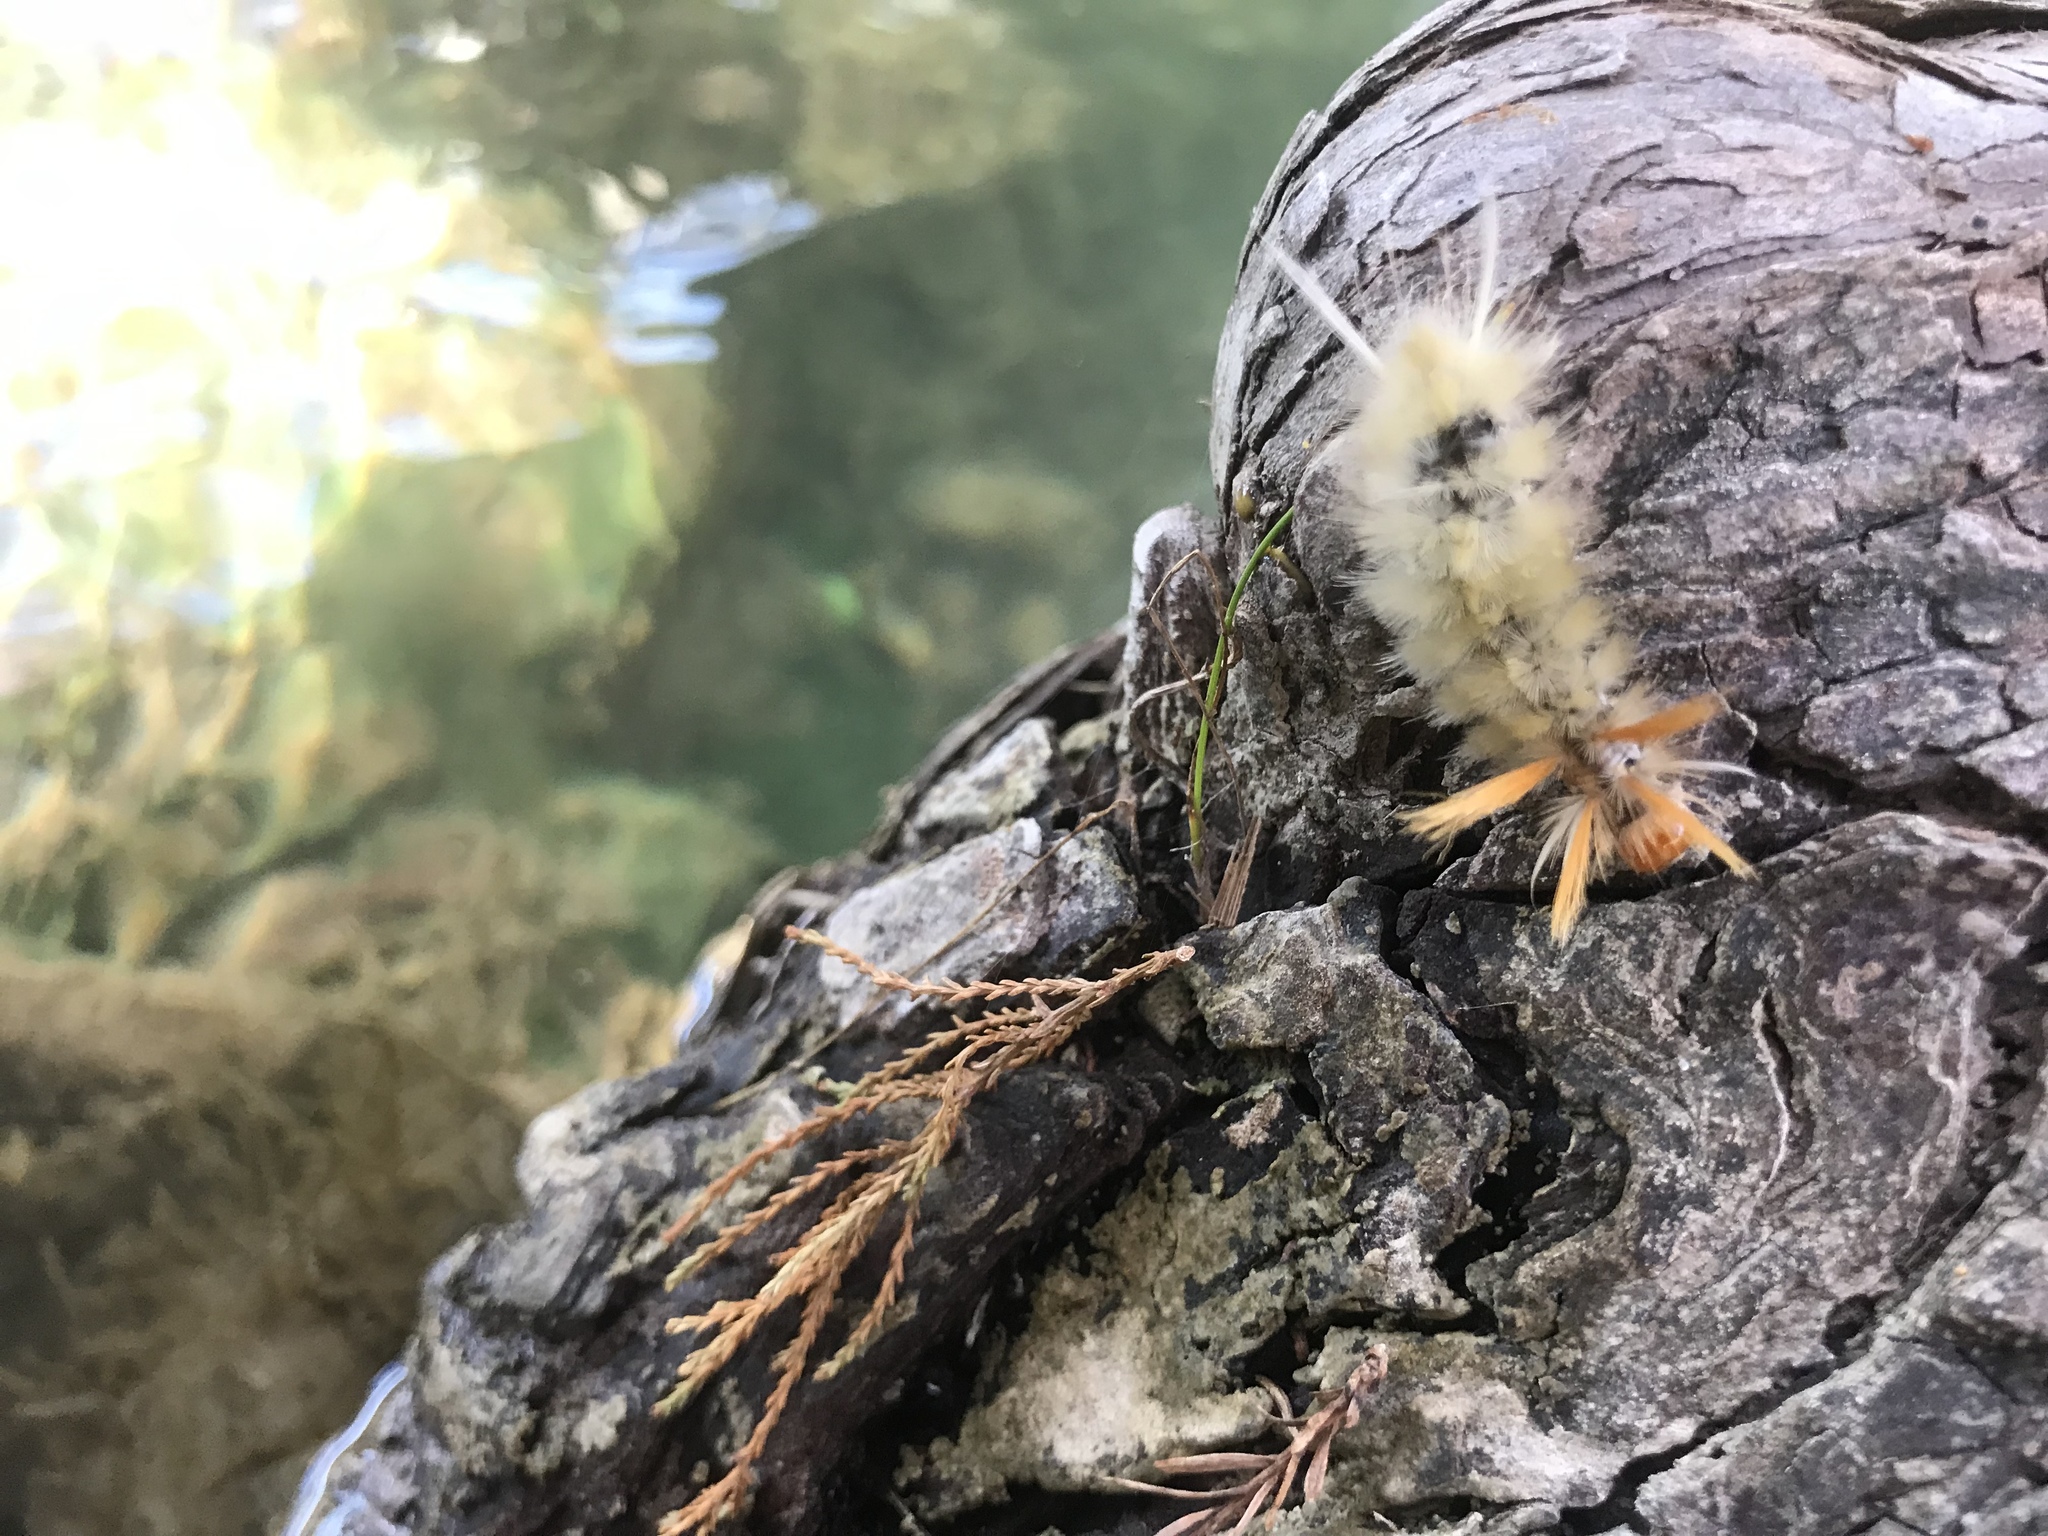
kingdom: Animalia
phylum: Arthropoda
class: Insecta
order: Lepidoptera
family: Erebidae
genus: Halysidota
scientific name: Halysidota harrisii
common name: Sycamore tussock moth
